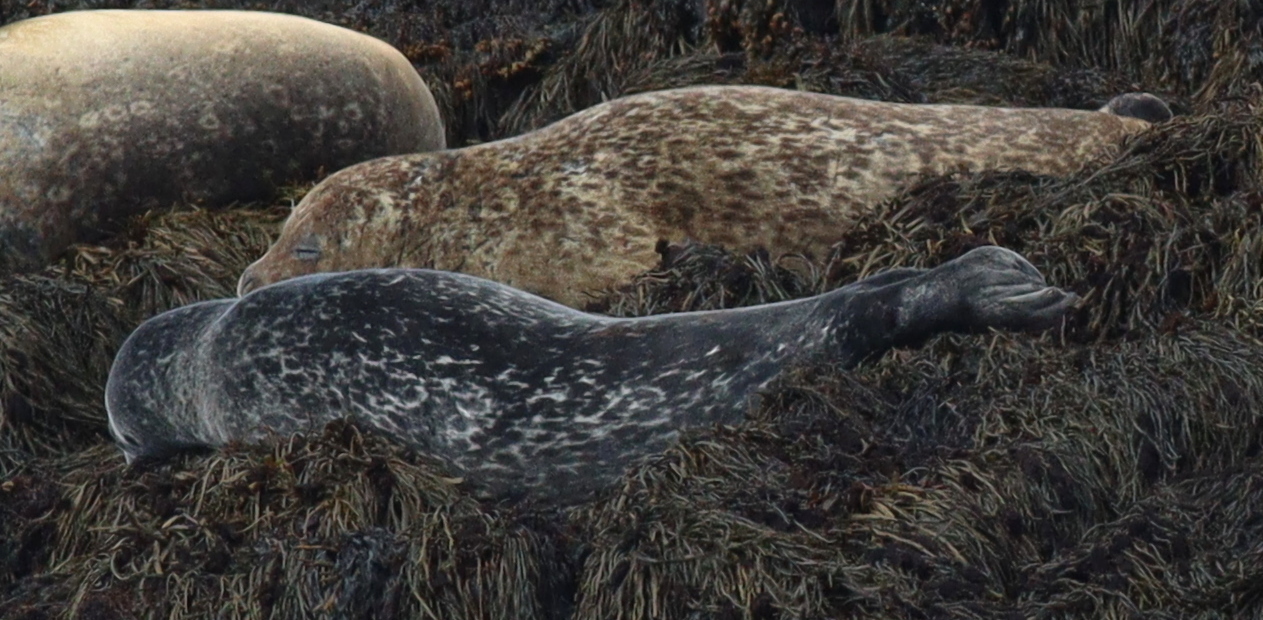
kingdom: Animalia
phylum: Chordata
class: Mammalia
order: Carnivora
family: Phocidae
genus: Phoca
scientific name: Phoca vitulina
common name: Harbor seal
